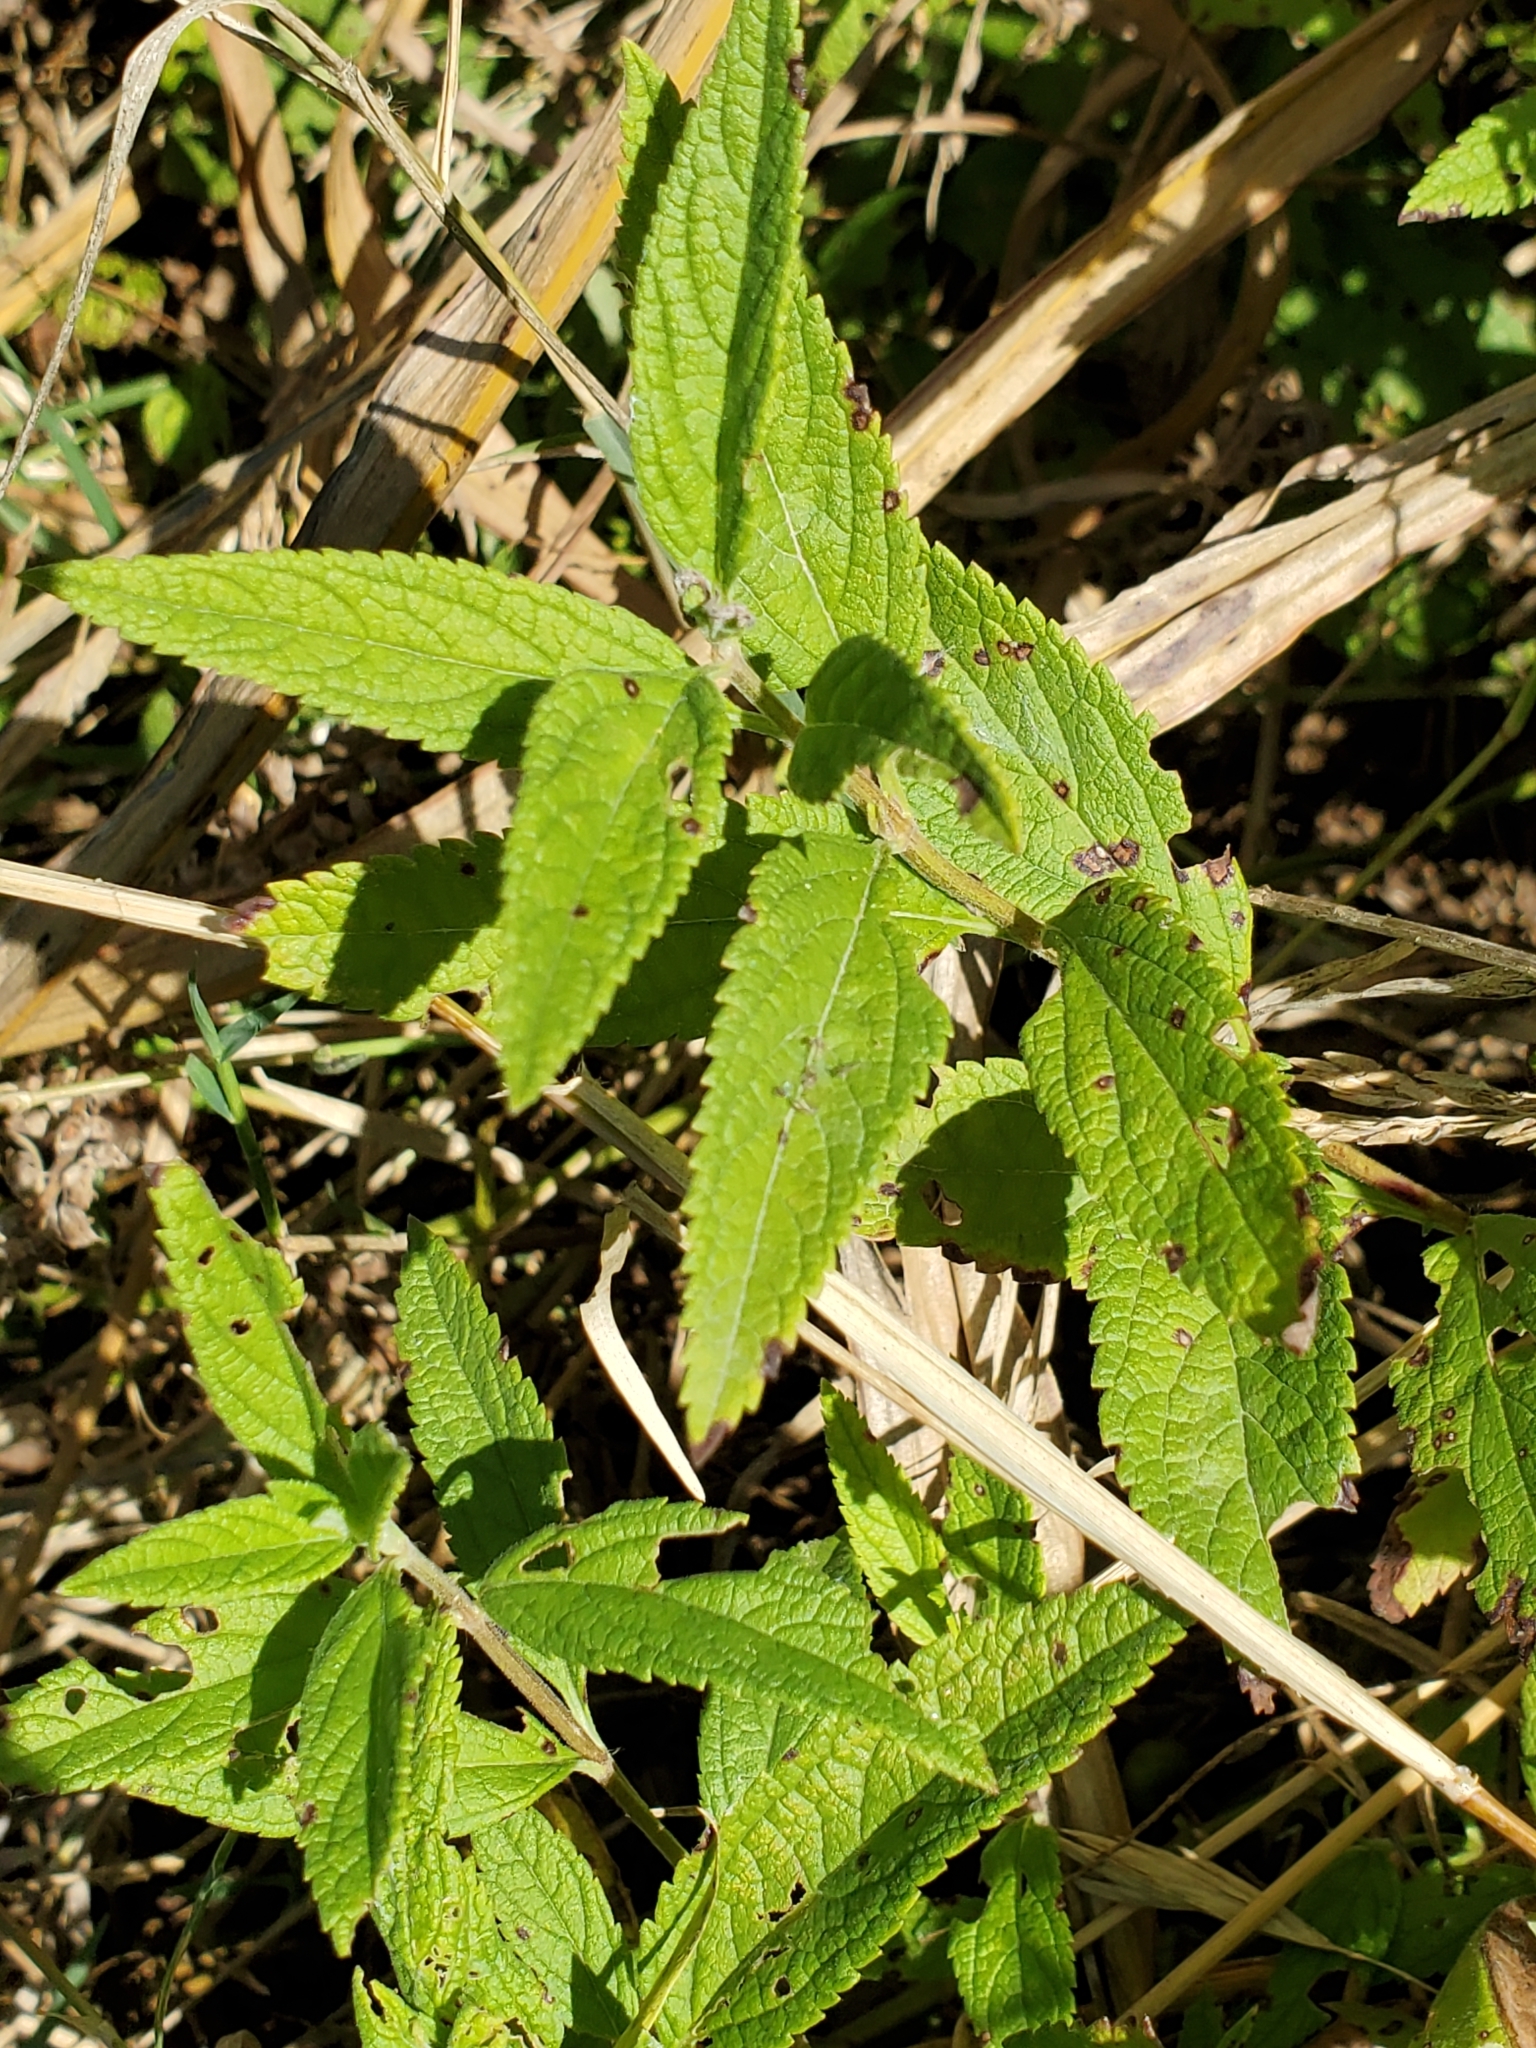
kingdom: Plantae
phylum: Tracheophyta
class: Magnoliopsida
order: Lamiales
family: Lamiaceae
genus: Teucrium
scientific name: Teucrium canadense
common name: American germander
